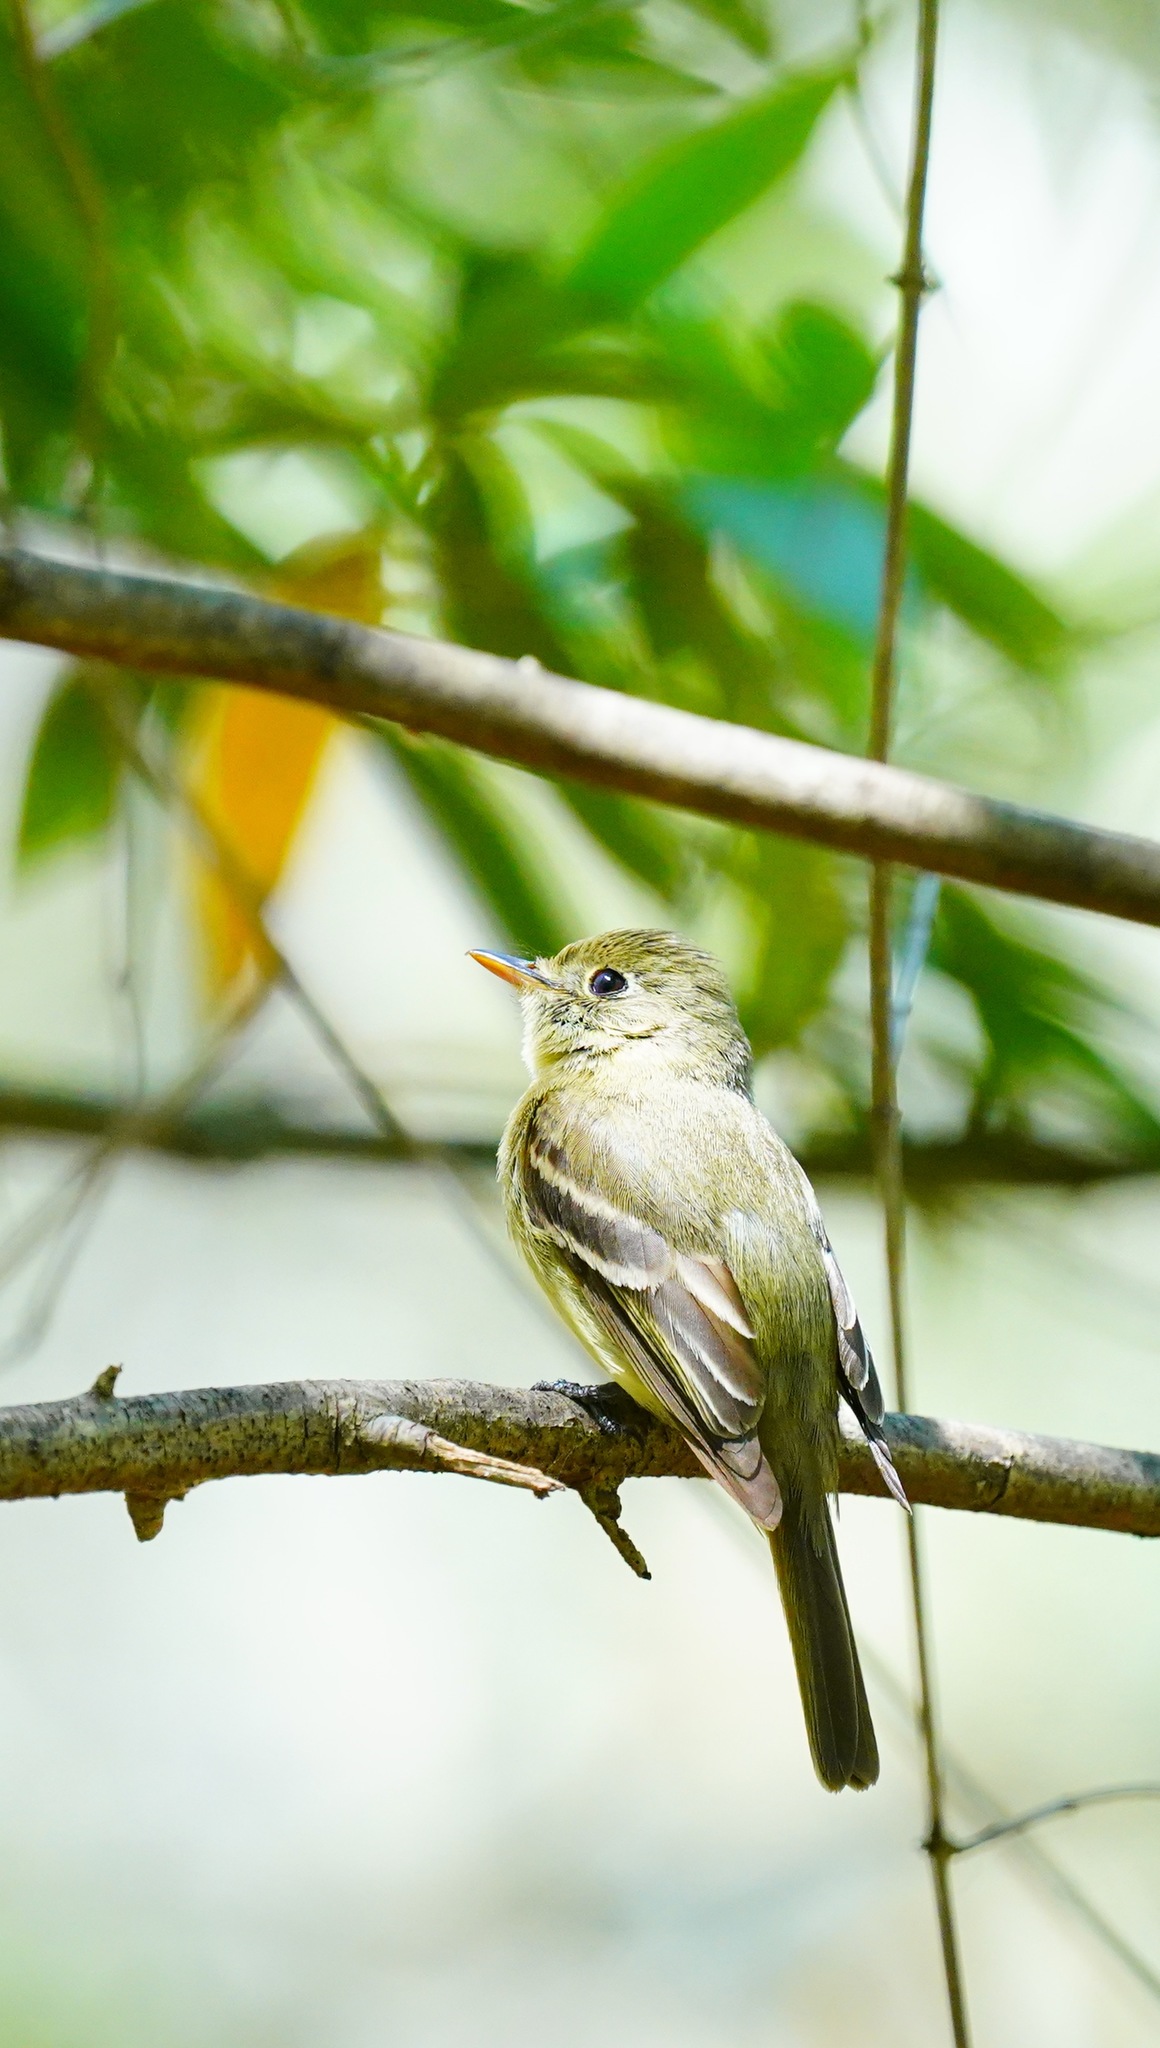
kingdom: Animalia
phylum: Chordata
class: Aves
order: Passeriformes
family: Tyrannidae
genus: Empidonax
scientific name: Empidonax difficilis
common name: Pacific-slope flycatcher
